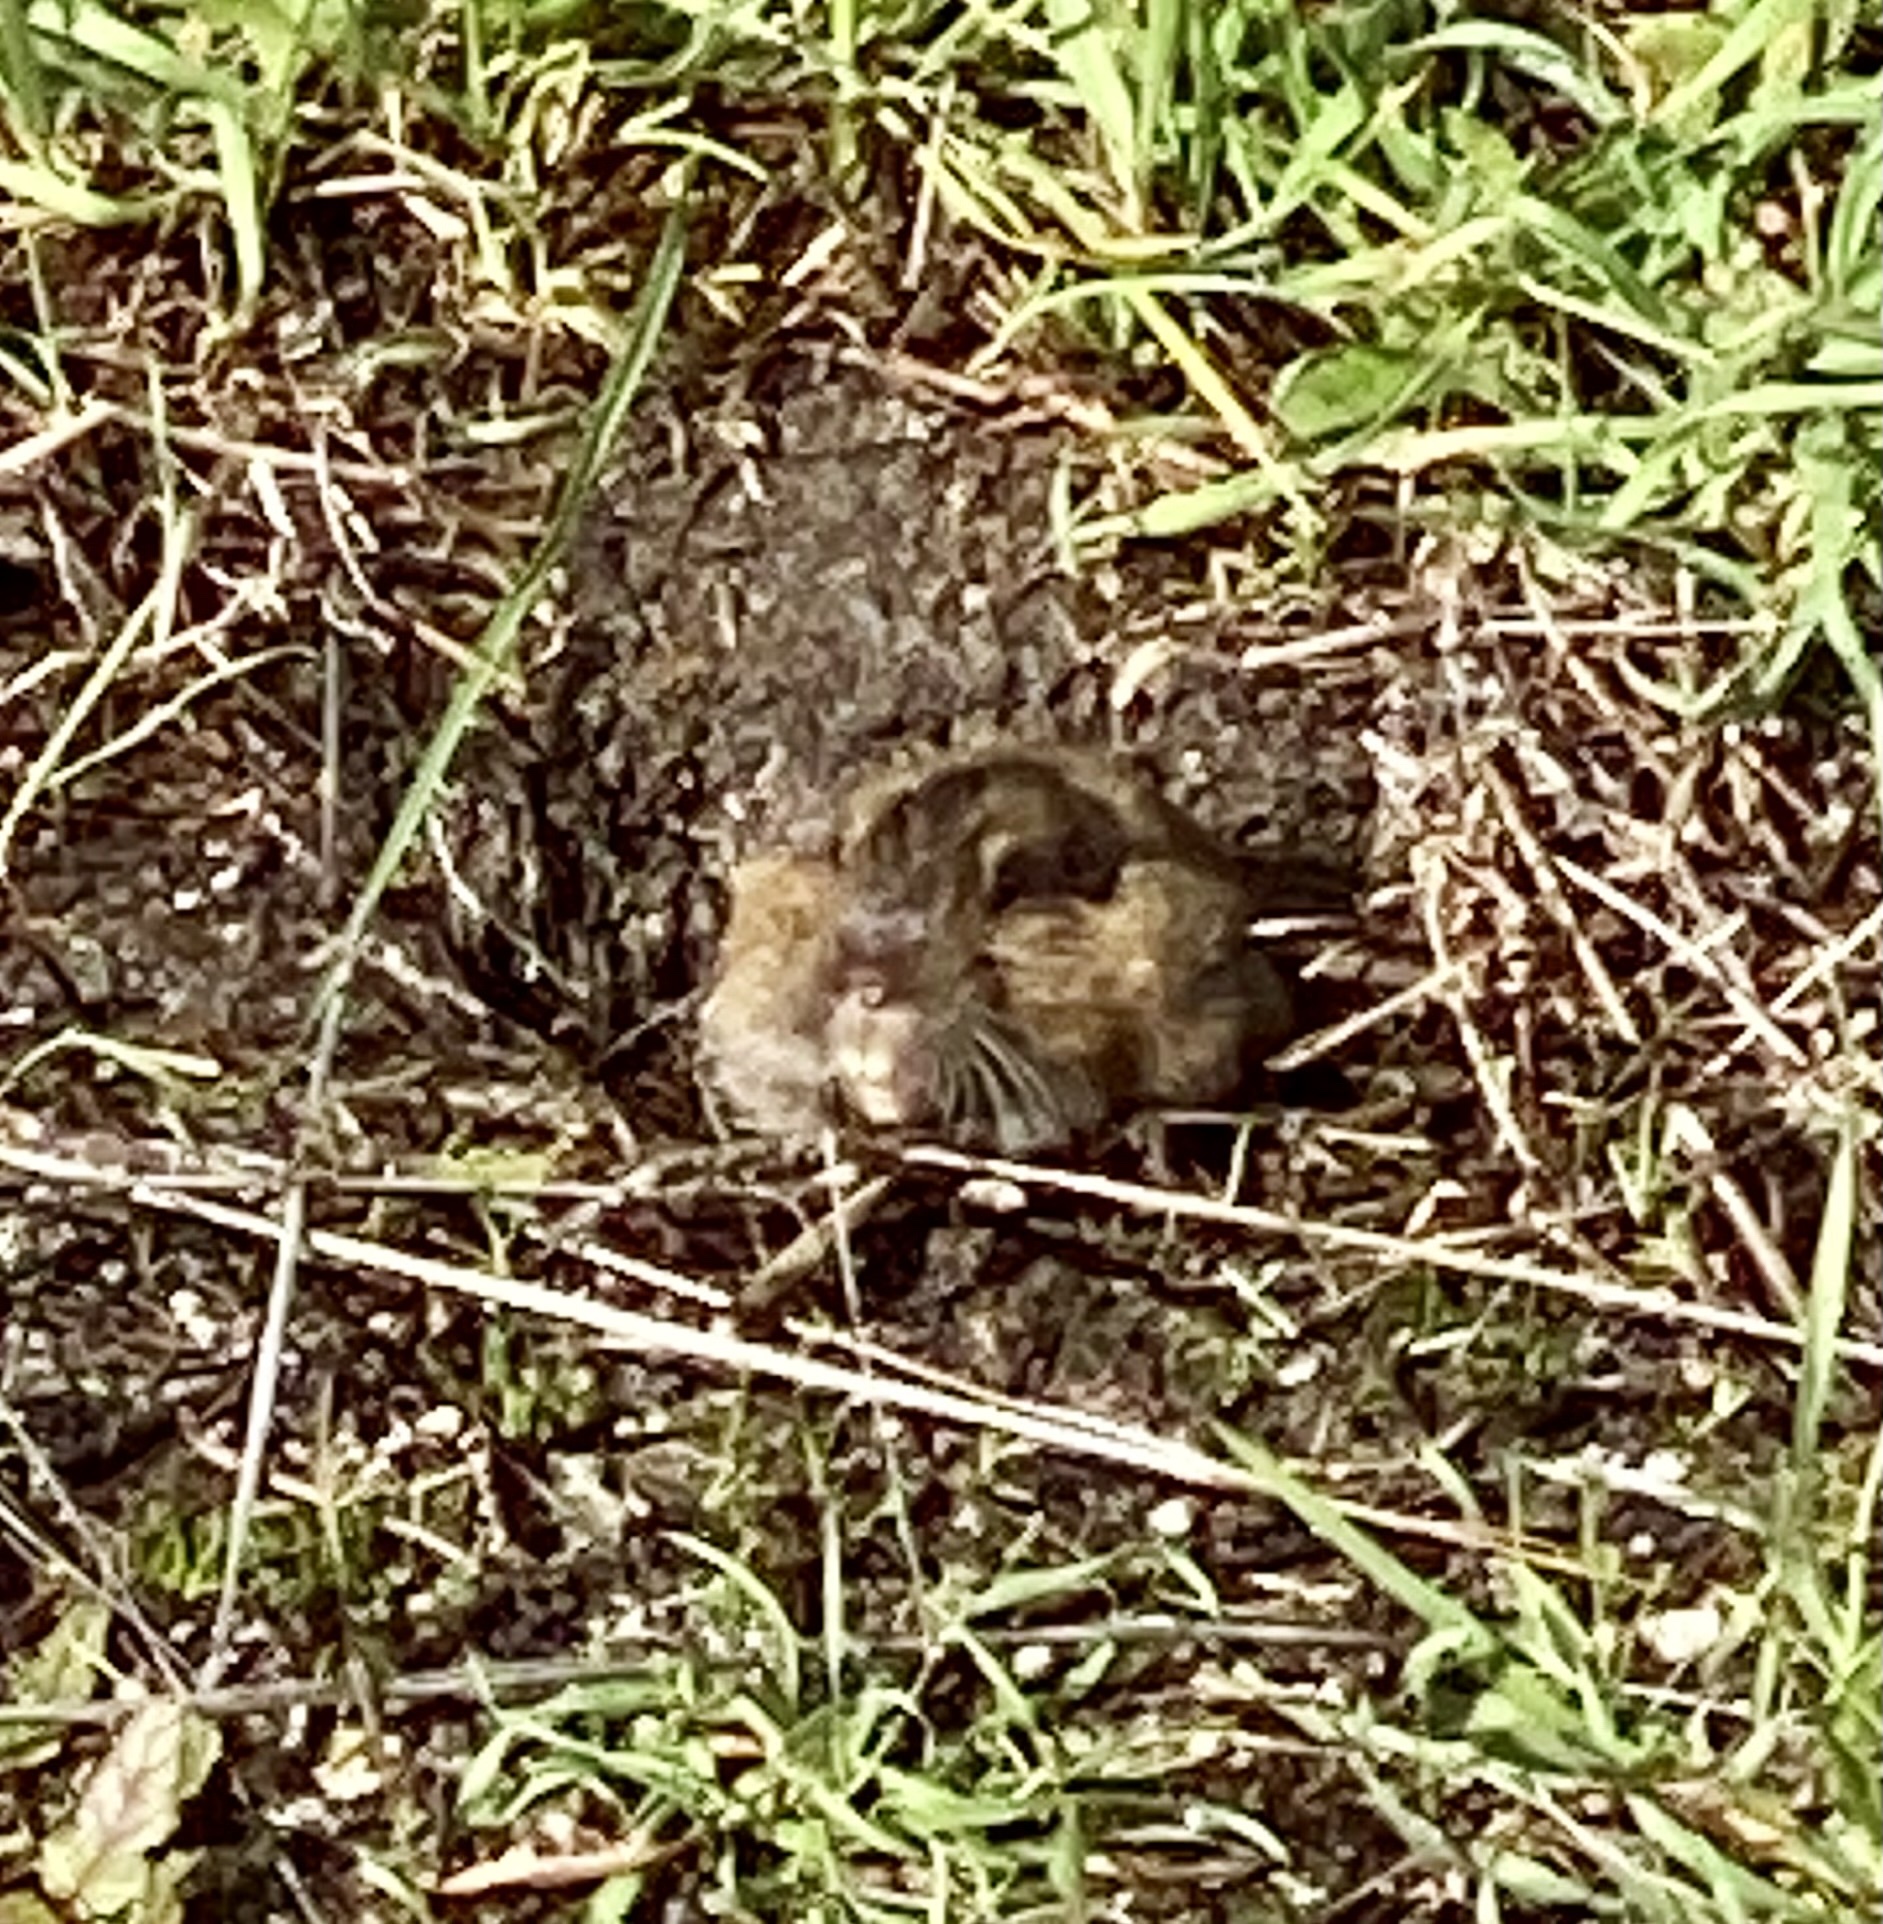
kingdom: Animalia
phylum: Chordata
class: Mammalia
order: Rodentia
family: Geomyidae
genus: Thomomys
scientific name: Thomomys bottae
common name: Botta's pocket gopher
